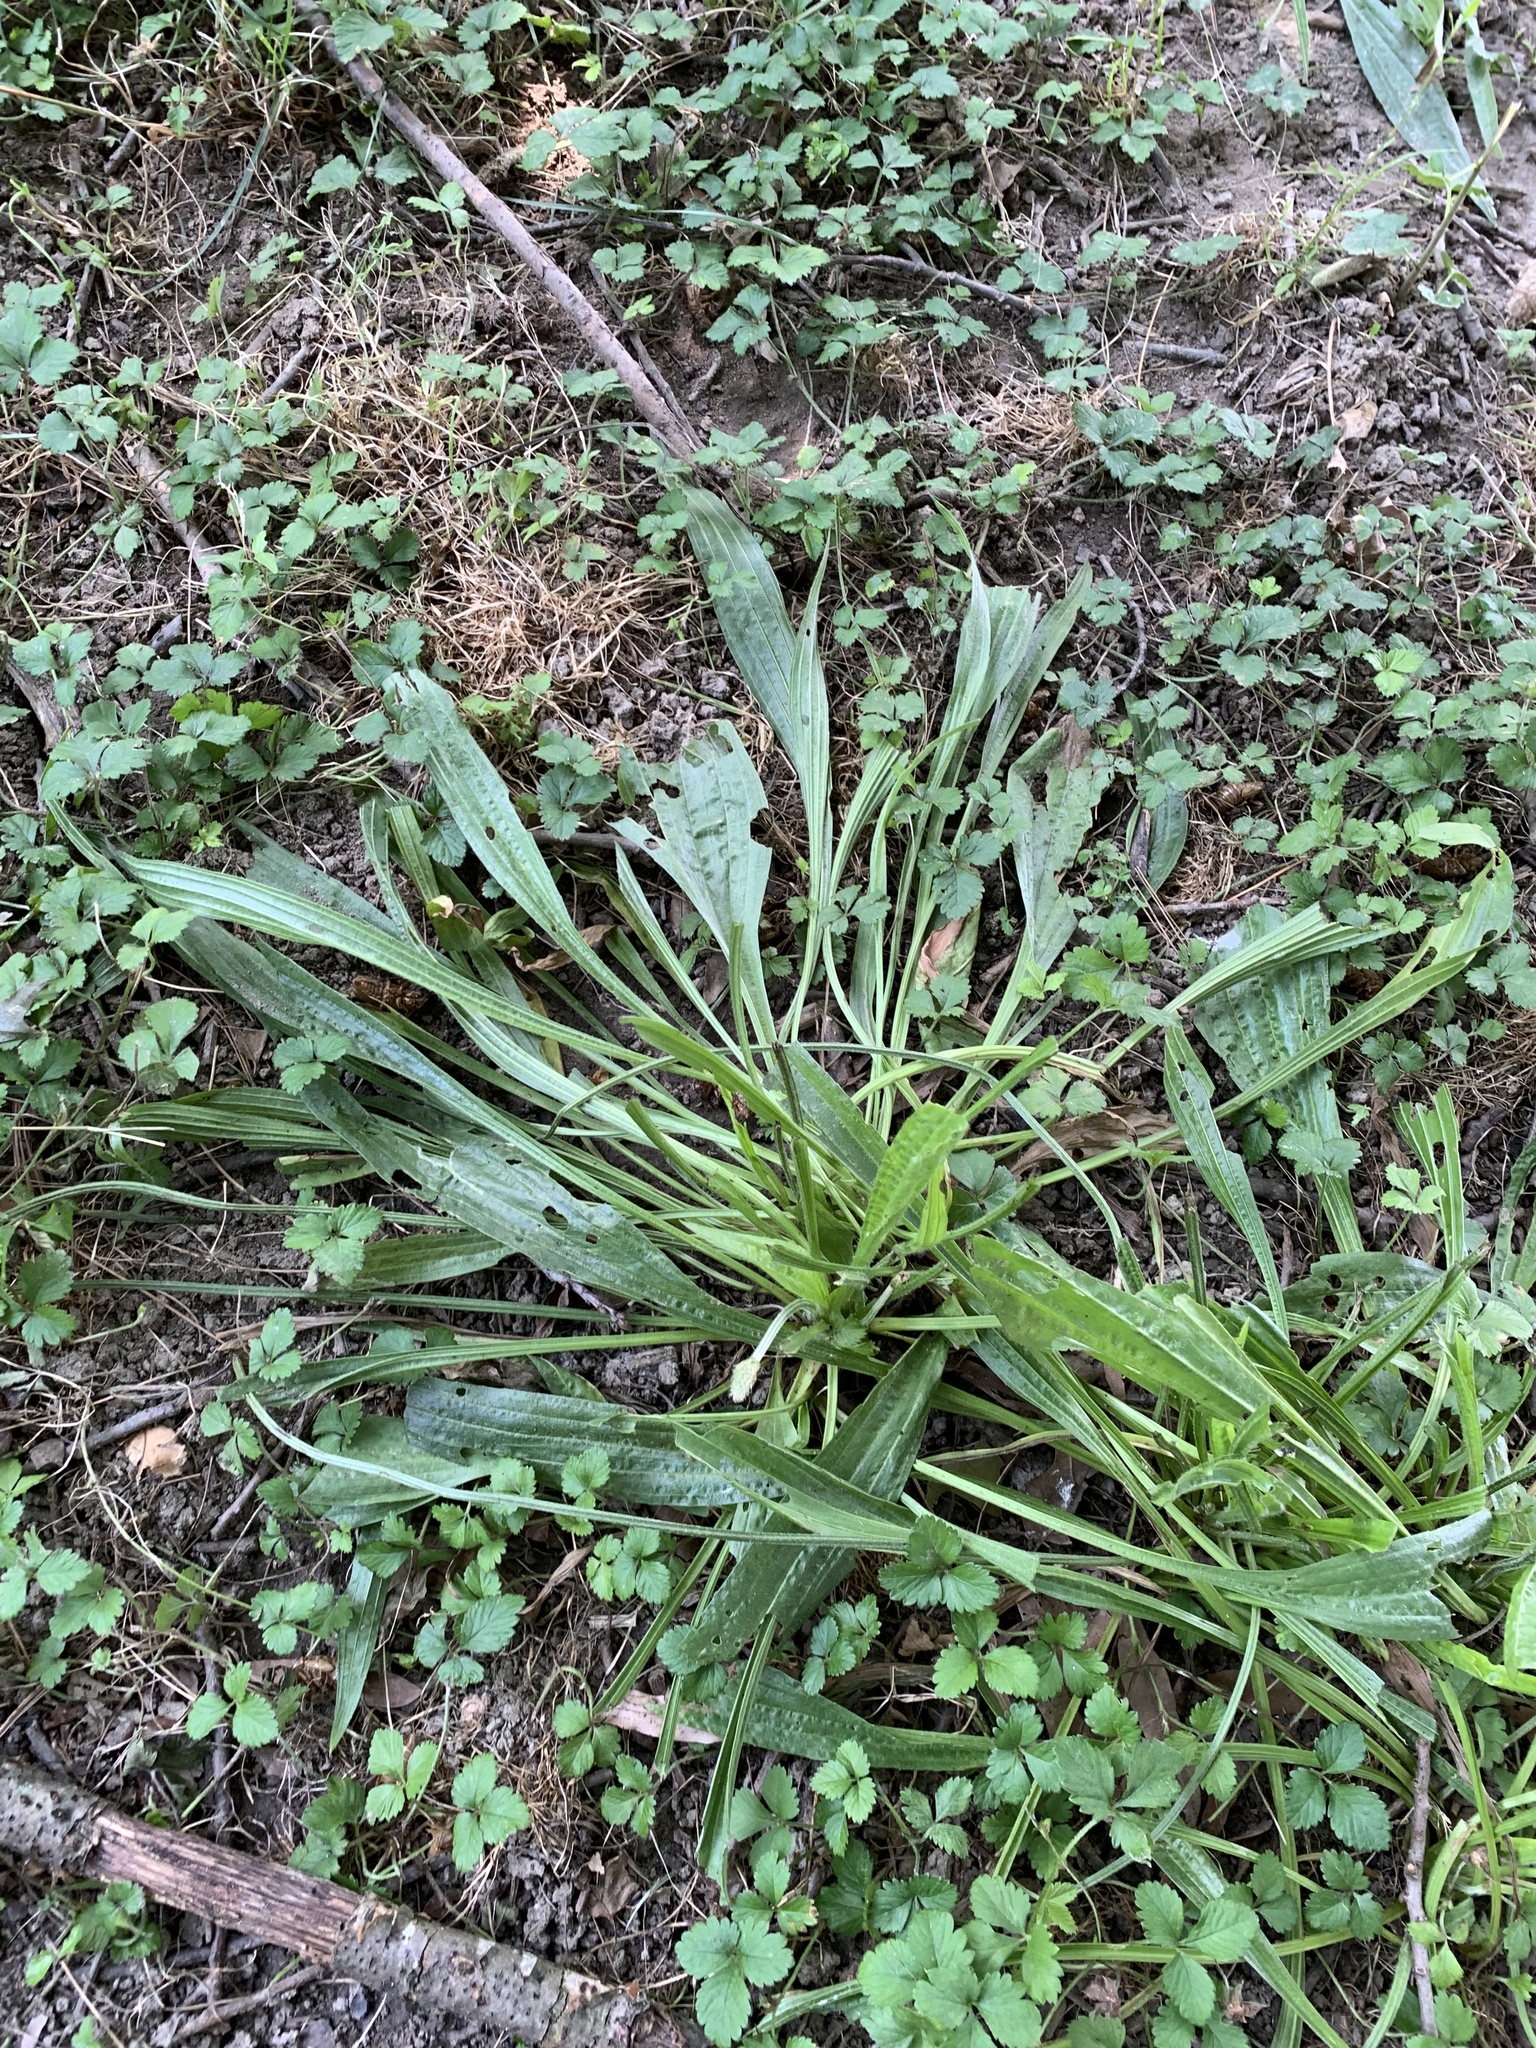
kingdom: Plantae
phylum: Tracheophyta
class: Magnoliopsida
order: Lamiales
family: Plantaginaceae
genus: Plantago
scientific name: Plantago lanceolata
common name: Ribwort plantain
